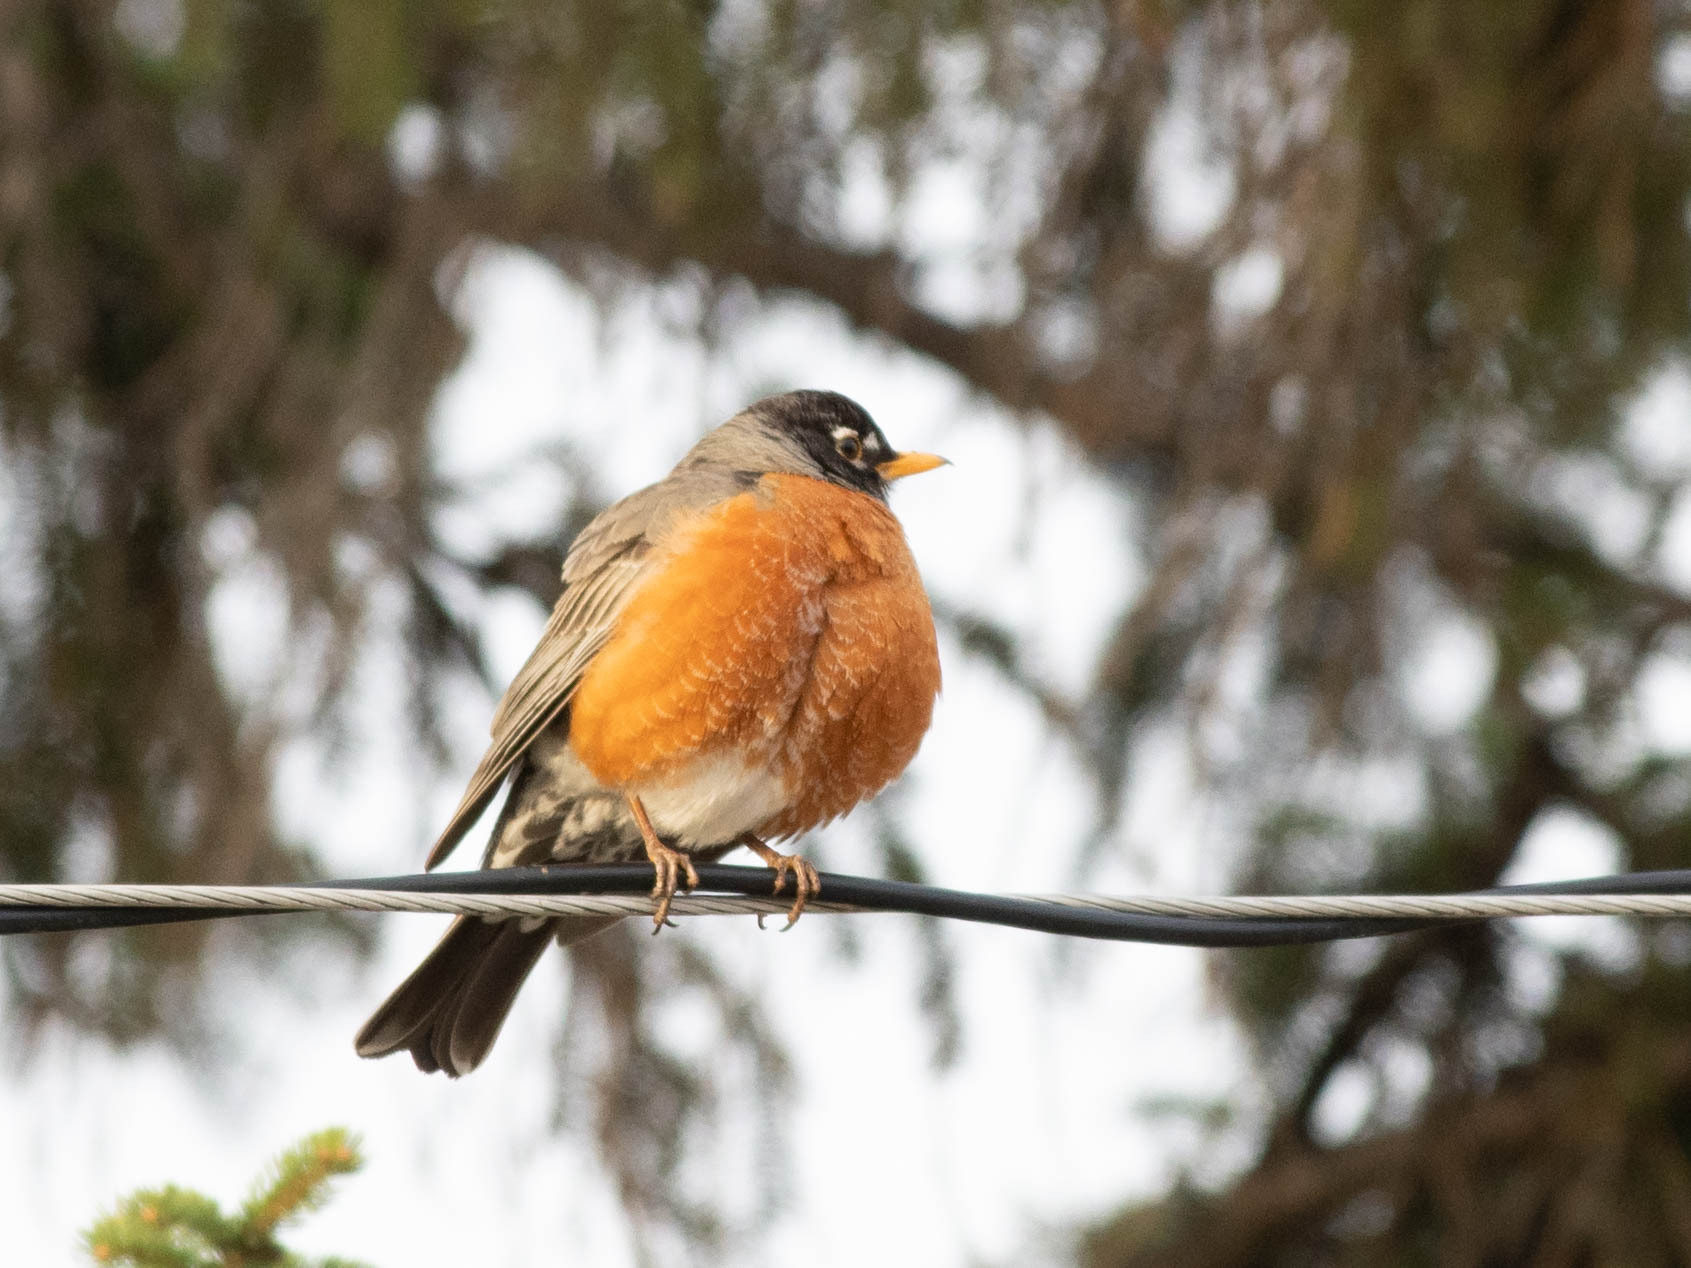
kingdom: Animalia
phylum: Chordata
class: Aves
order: Passeriformes
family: Turdidae
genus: Turdus
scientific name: Turdus migratorius
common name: American robin
